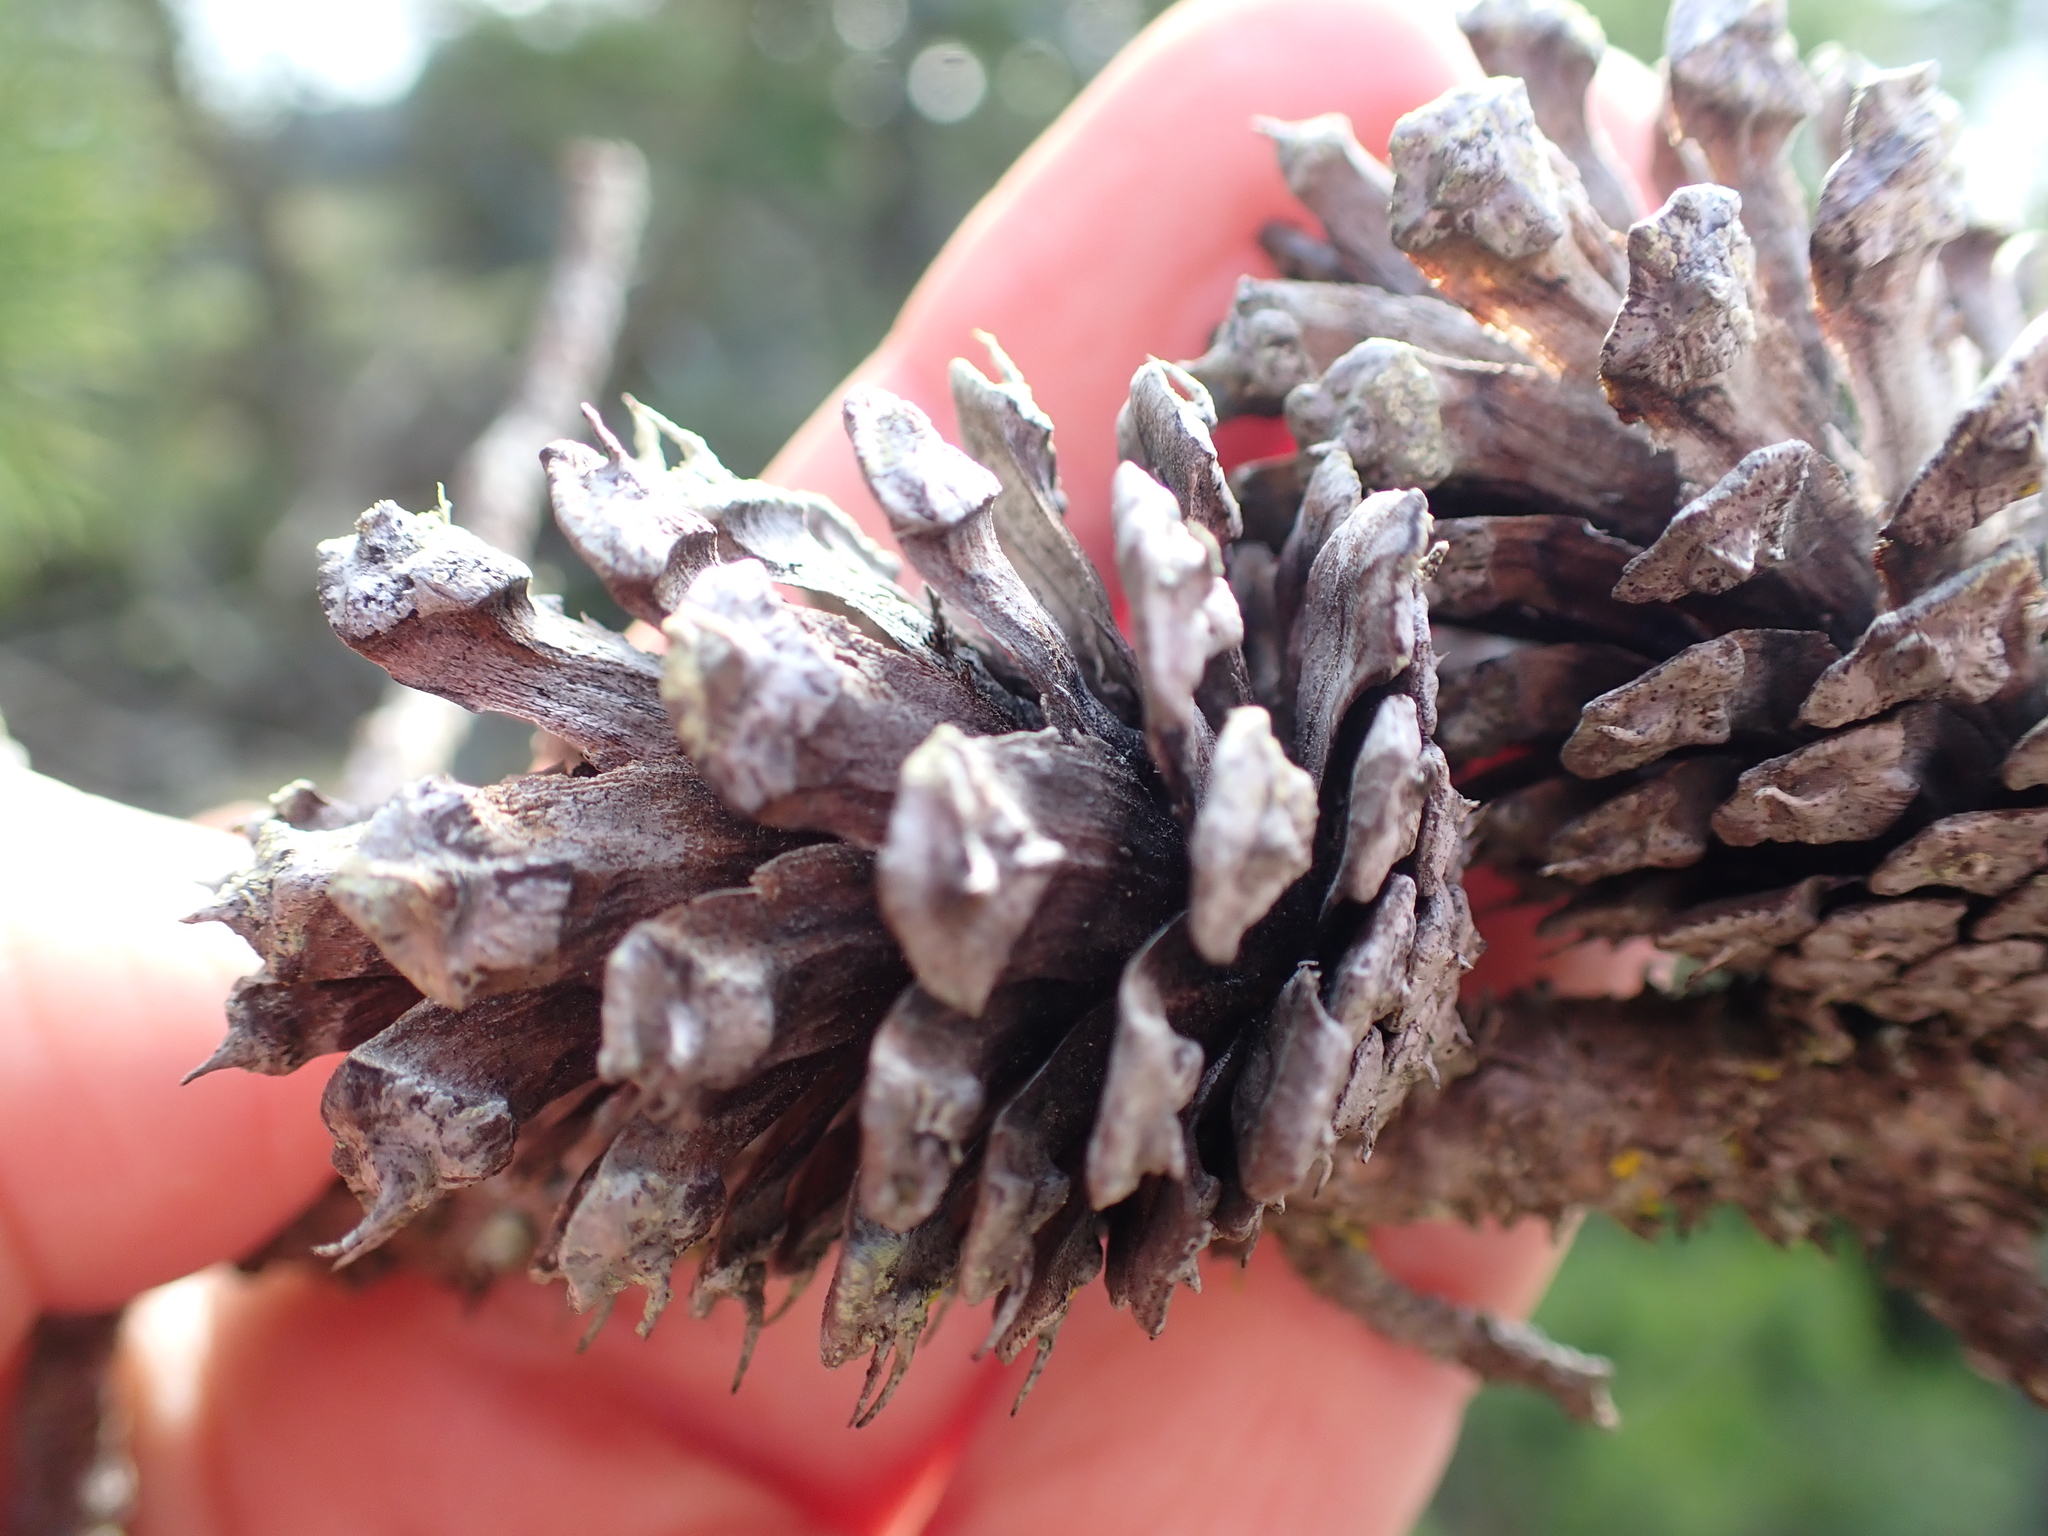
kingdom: Plantae
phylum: Tracheophyta
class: Pinopsida
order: Pinales
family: Pinaceae
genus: Pinus
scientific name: Pinus contorta
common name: Lodgepole pine
